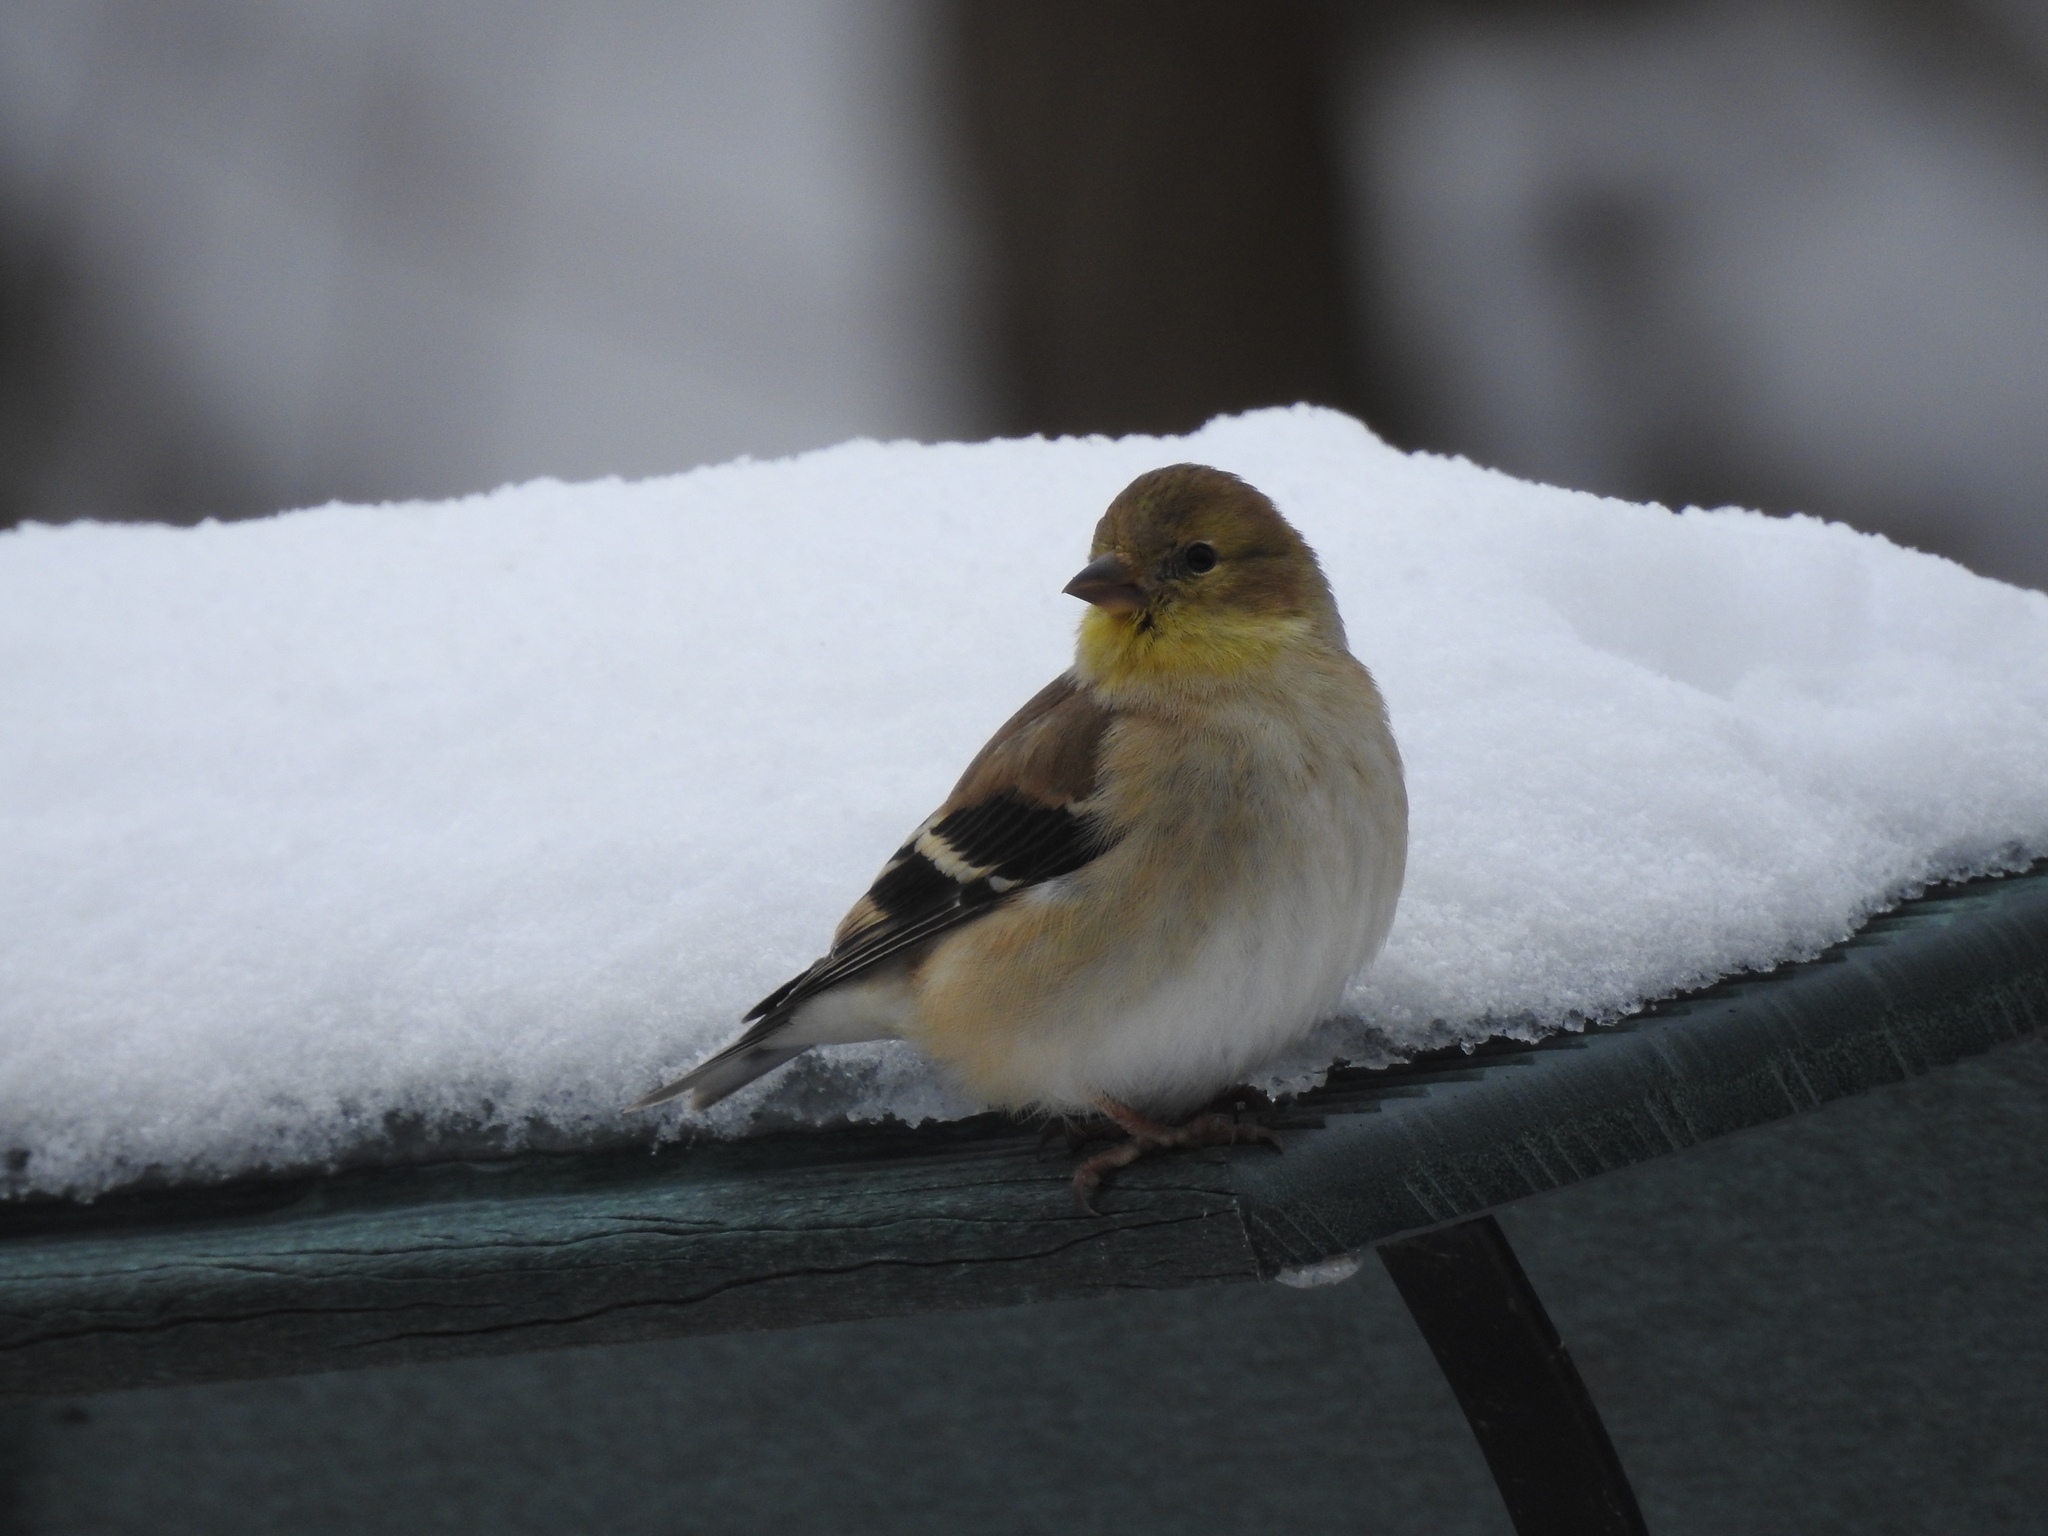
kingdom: Animalia
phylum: Chordata
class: Aves
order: Passeriformes
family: Fringillidae
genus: Spinus
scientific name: Spinus tristis
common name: American goldfinch
